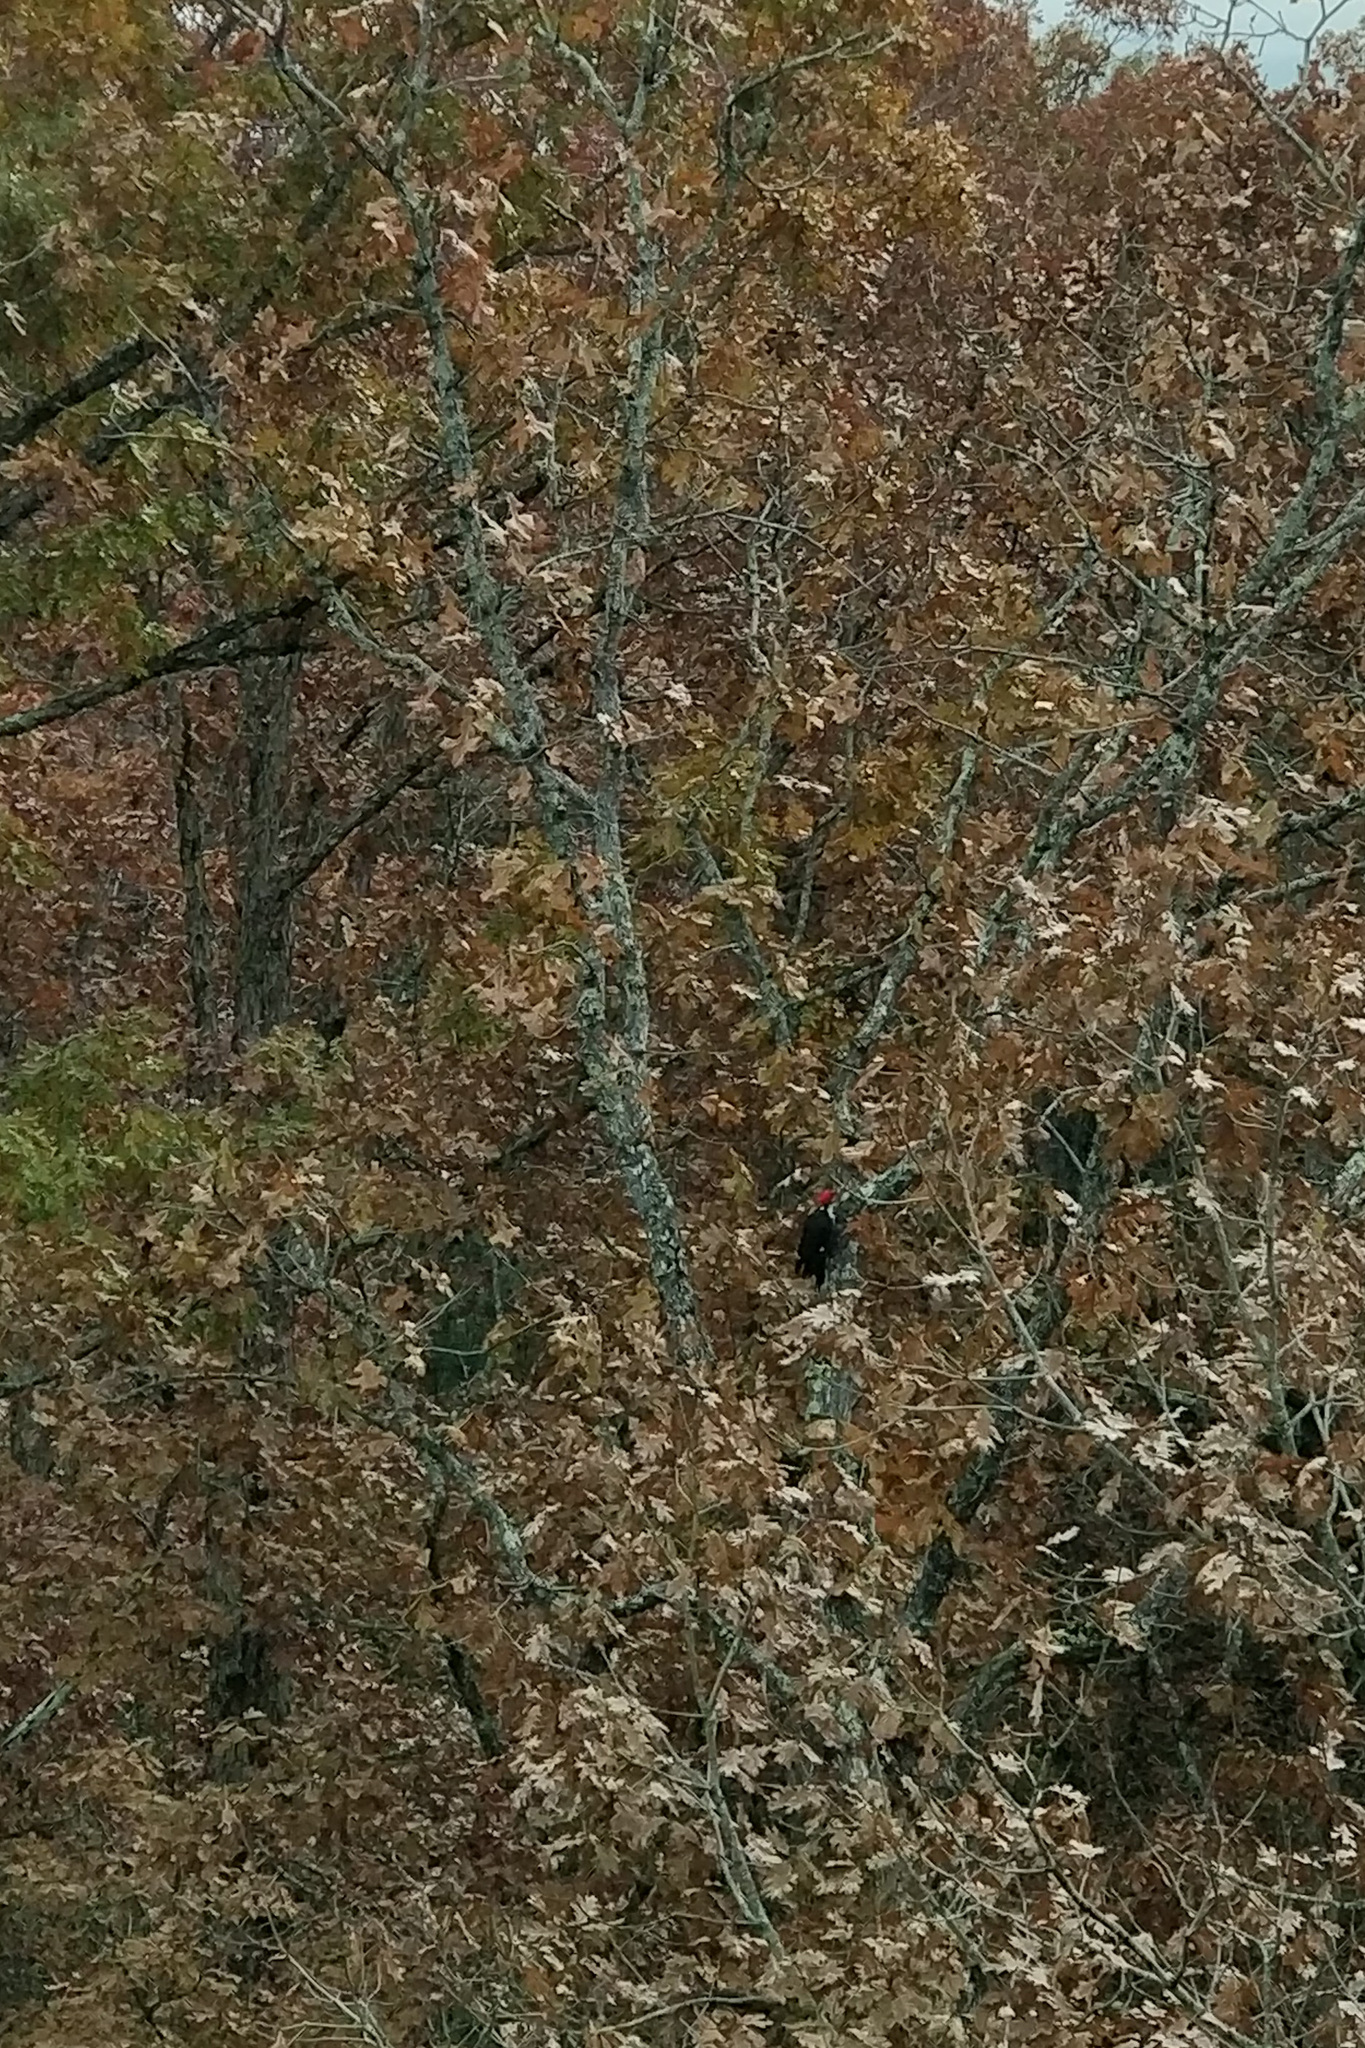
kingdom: Animalia
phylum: Chordata
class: Aves
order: Piciformes
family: Picidae
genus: Dryocopus
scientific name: Dryocopus pileatus
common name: Pileated woodpecker
